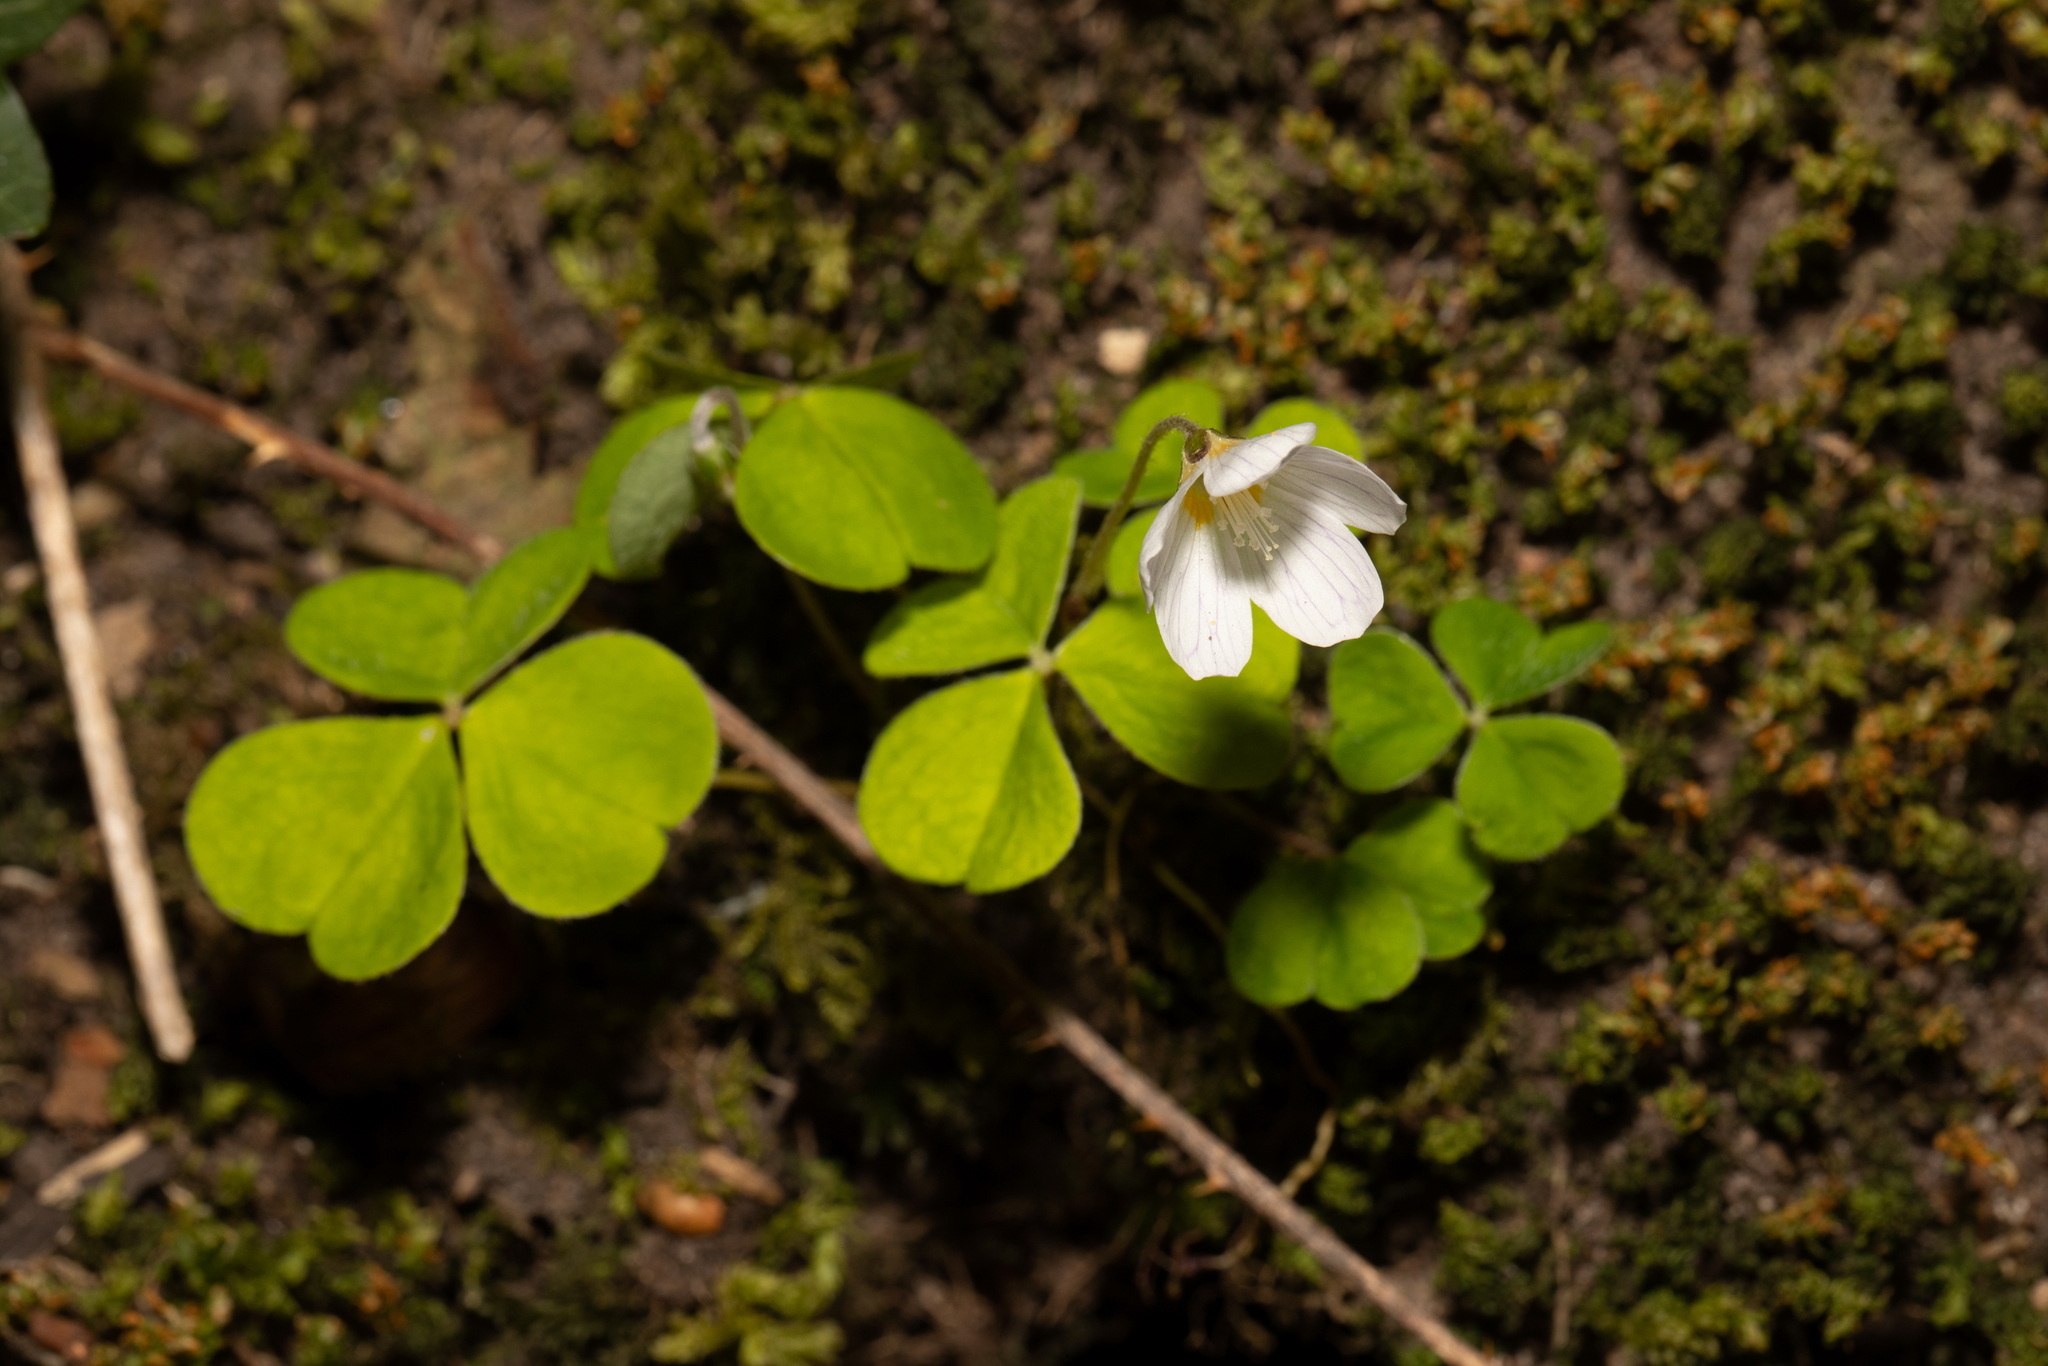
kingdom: Plantae
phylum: Tracheophyta
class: Magnoliopsida
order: Oxalidales
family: Oxalidaceae
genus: Oxalis
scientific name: Oxalis acetosella
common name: Wood-sorrel
